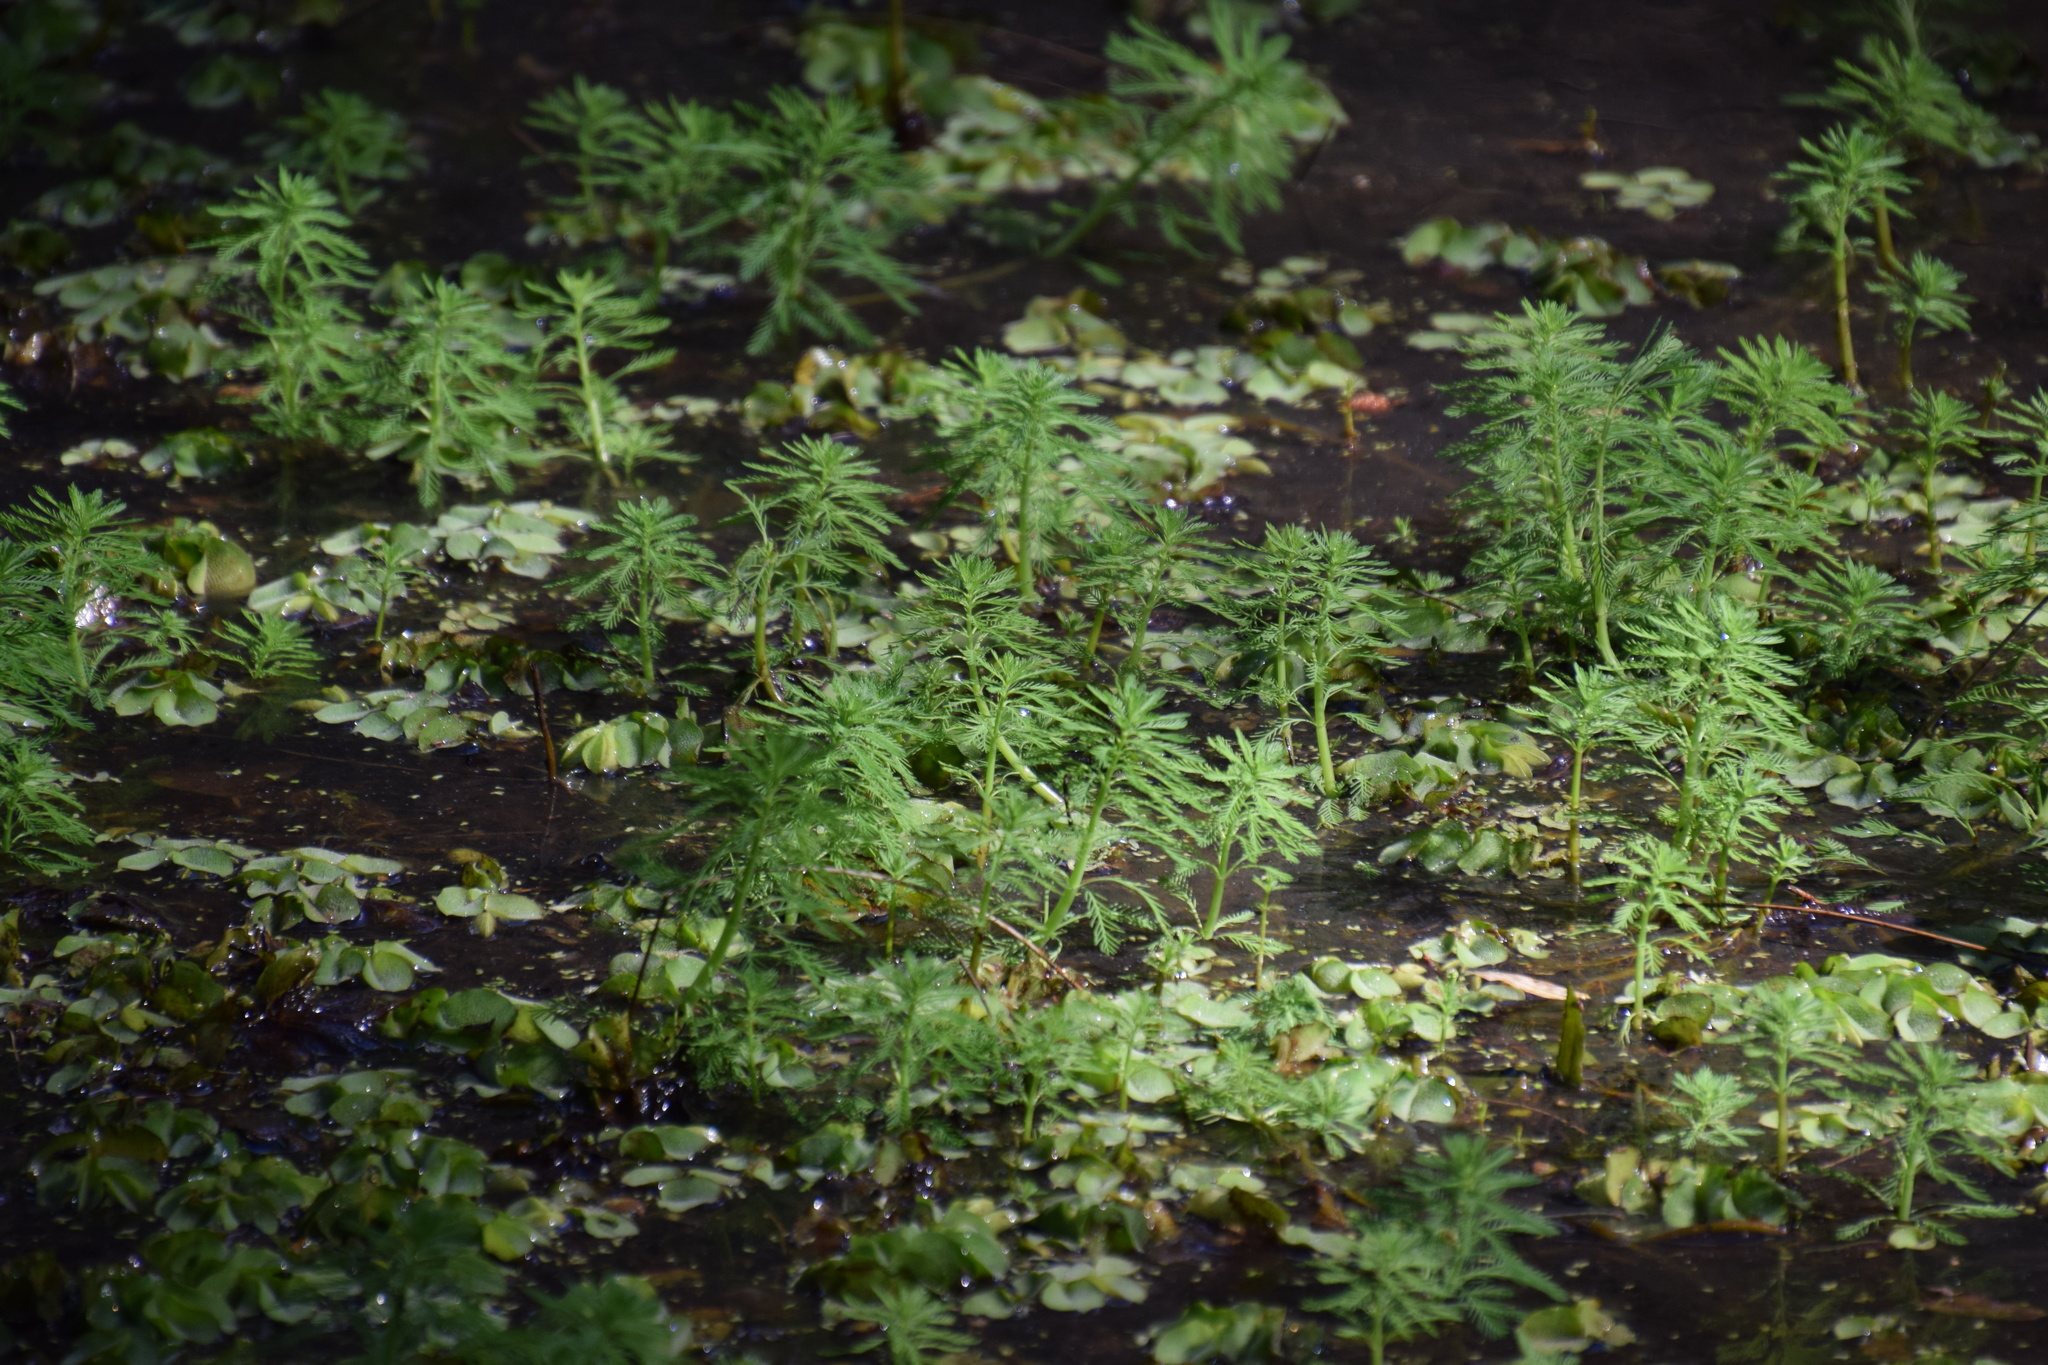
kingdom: Plantae
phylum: Tracheophyta
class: Magnoliopsida
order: Saxifragales
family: Haloragaceae
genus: Myriophyllum
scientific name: Myriophyllum aquaticum
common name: Parrot's feather
